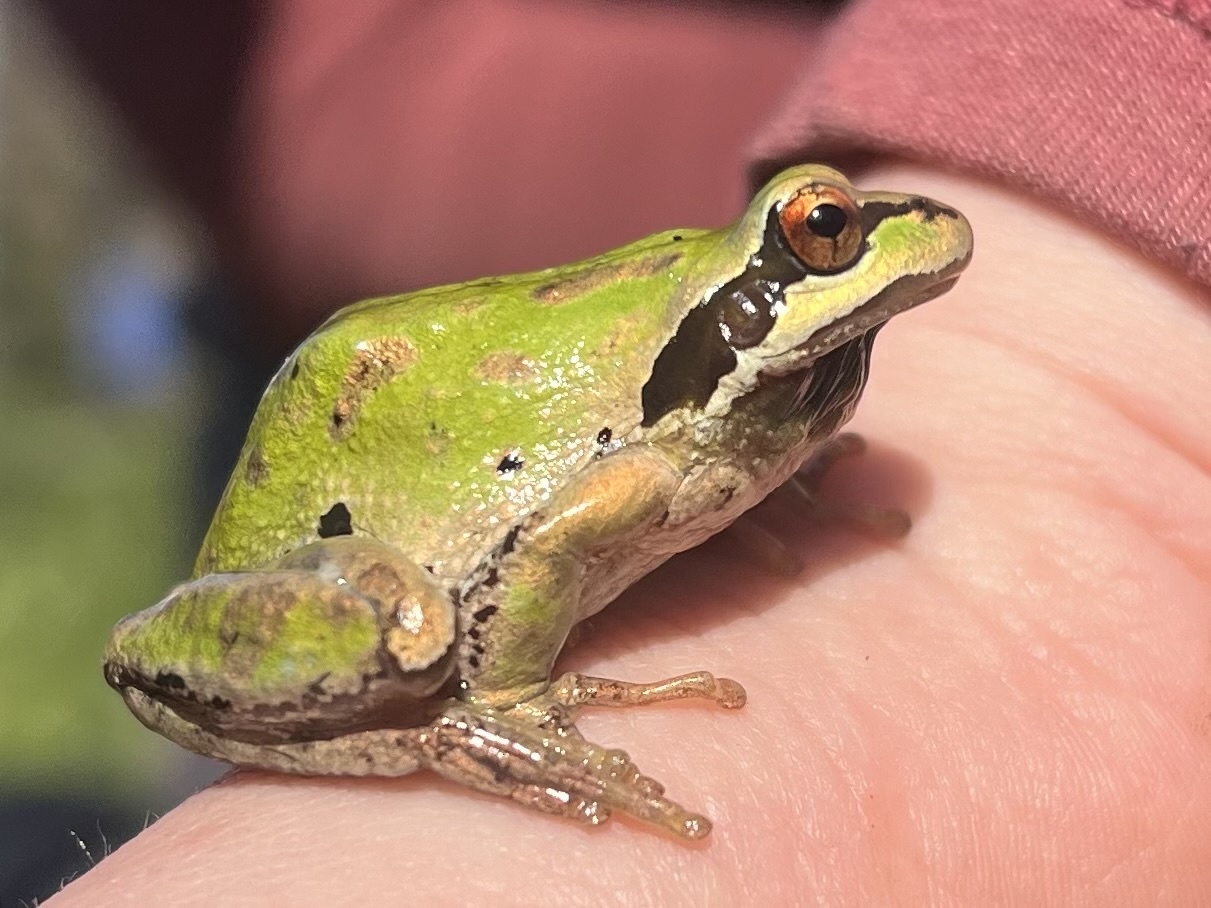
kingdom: Animalia
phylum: Chordata
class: Amphibia
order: Anura
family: Hylidae
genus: Pseudacris
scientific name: Pseudacris regilla
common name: Pacific chorus frog
